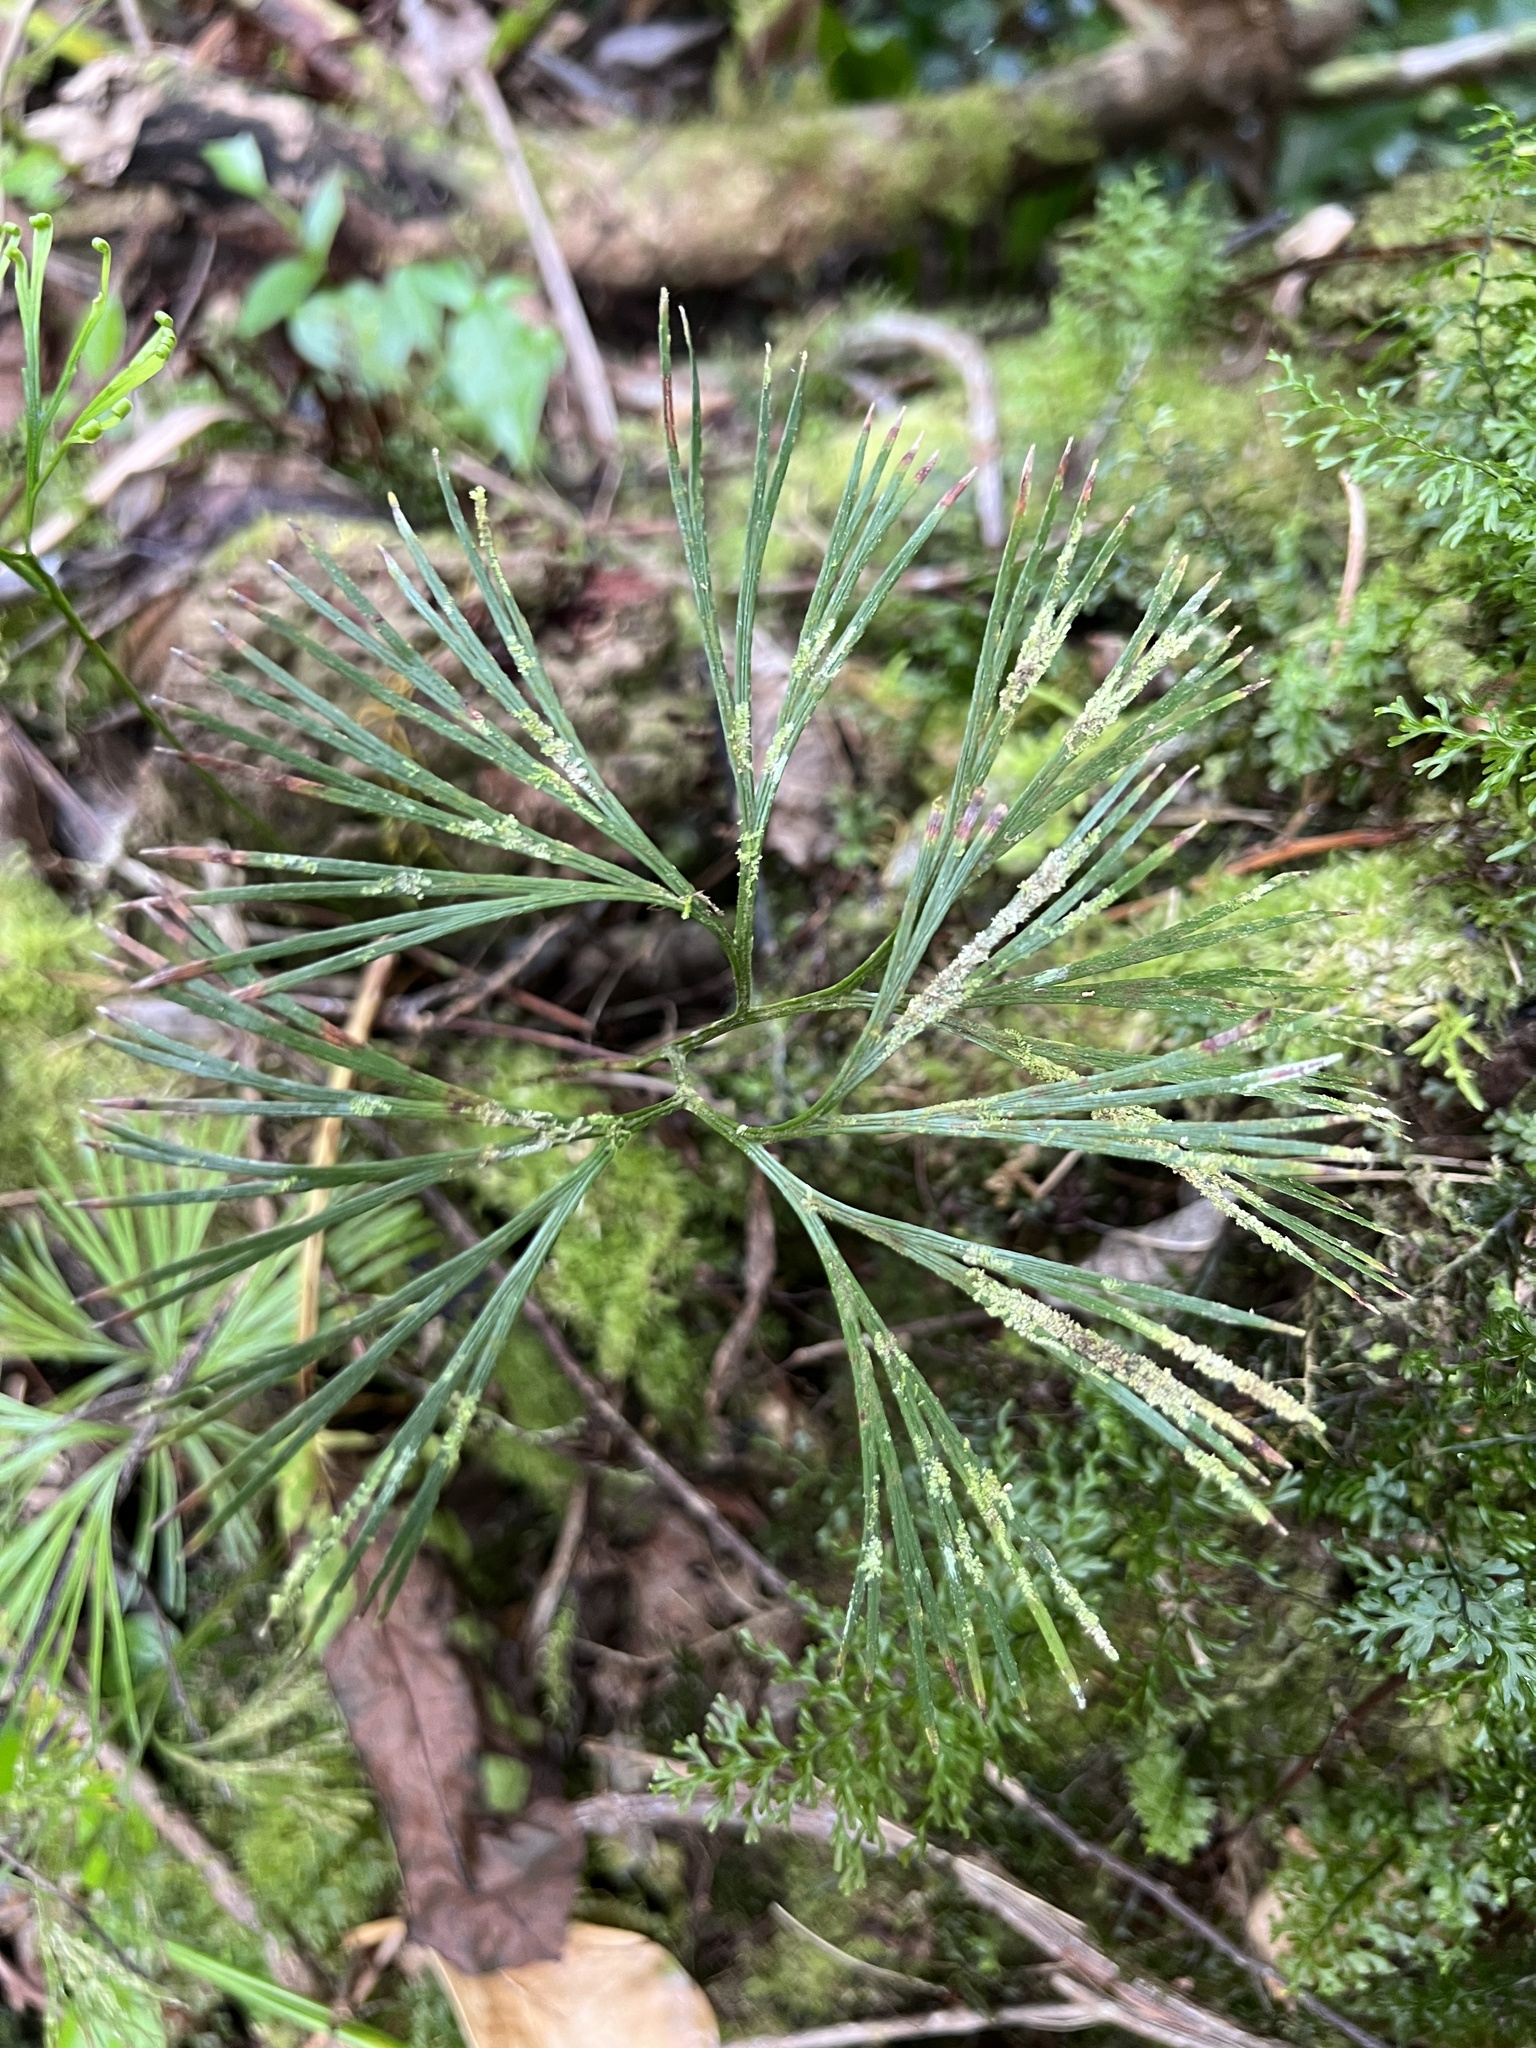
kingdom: Plantae
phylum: Tracheophyta
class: Polypodiopsida
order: Schizaeales
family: Schizaeaceae
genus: Schizaea
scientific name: Schizaea dichotoma
